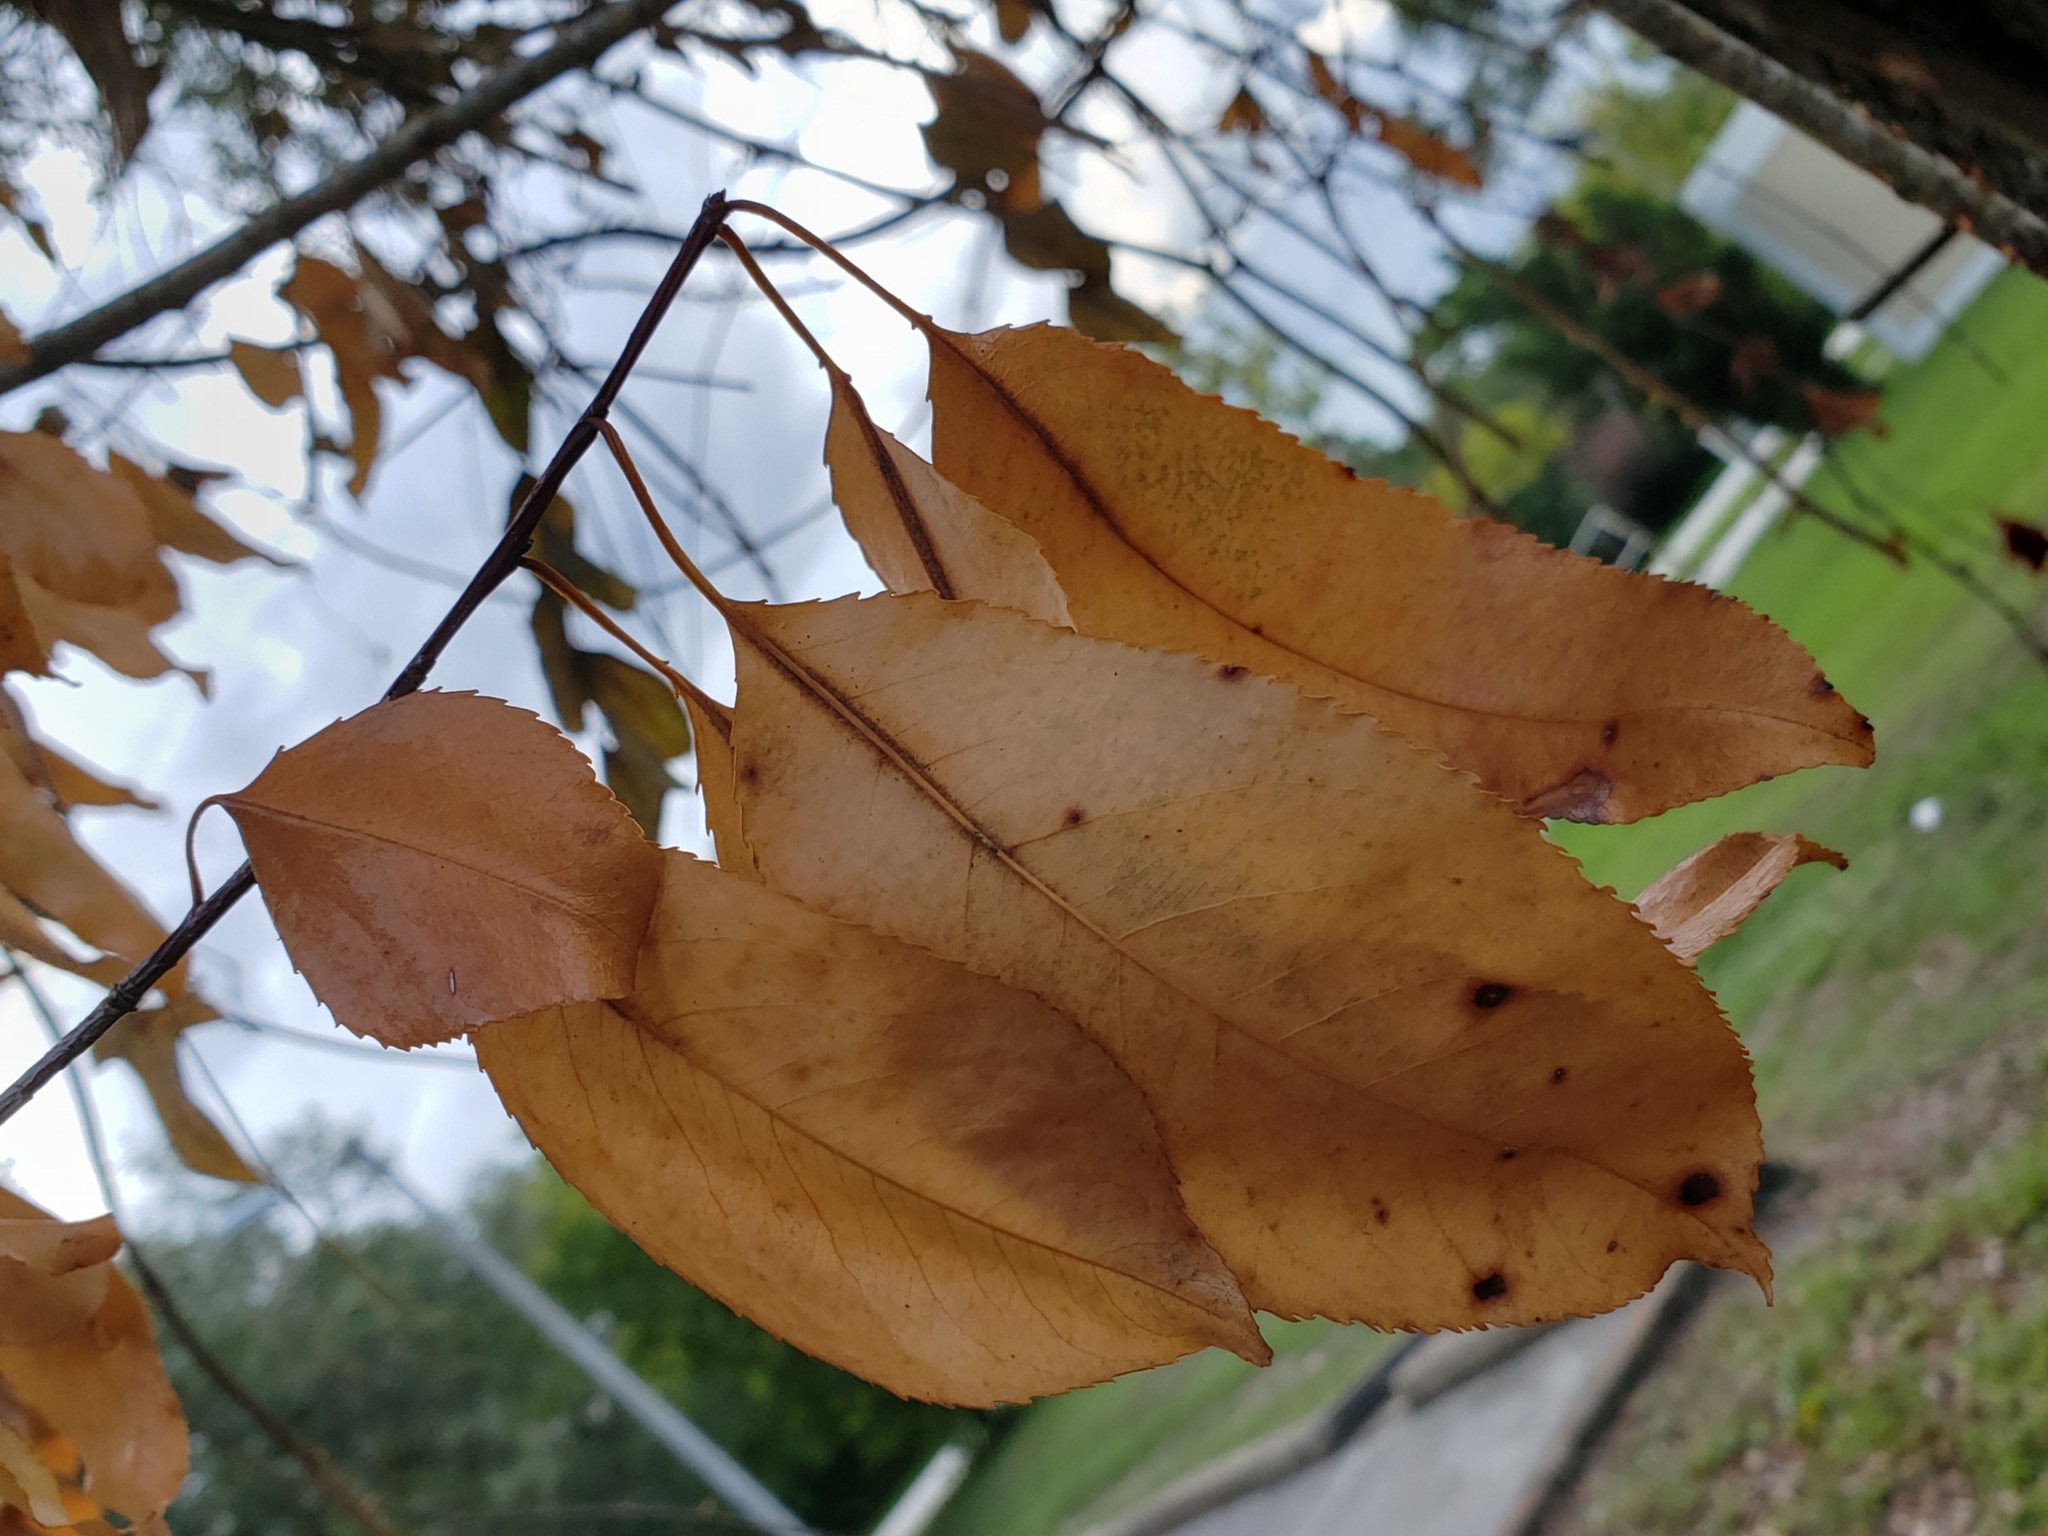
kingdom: Plantae
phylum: Tracheophyta
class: Magnoliopsida
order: Rosales
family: Rosaceae
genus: Prunus
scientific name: Prunus serotina
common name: Black cherry
